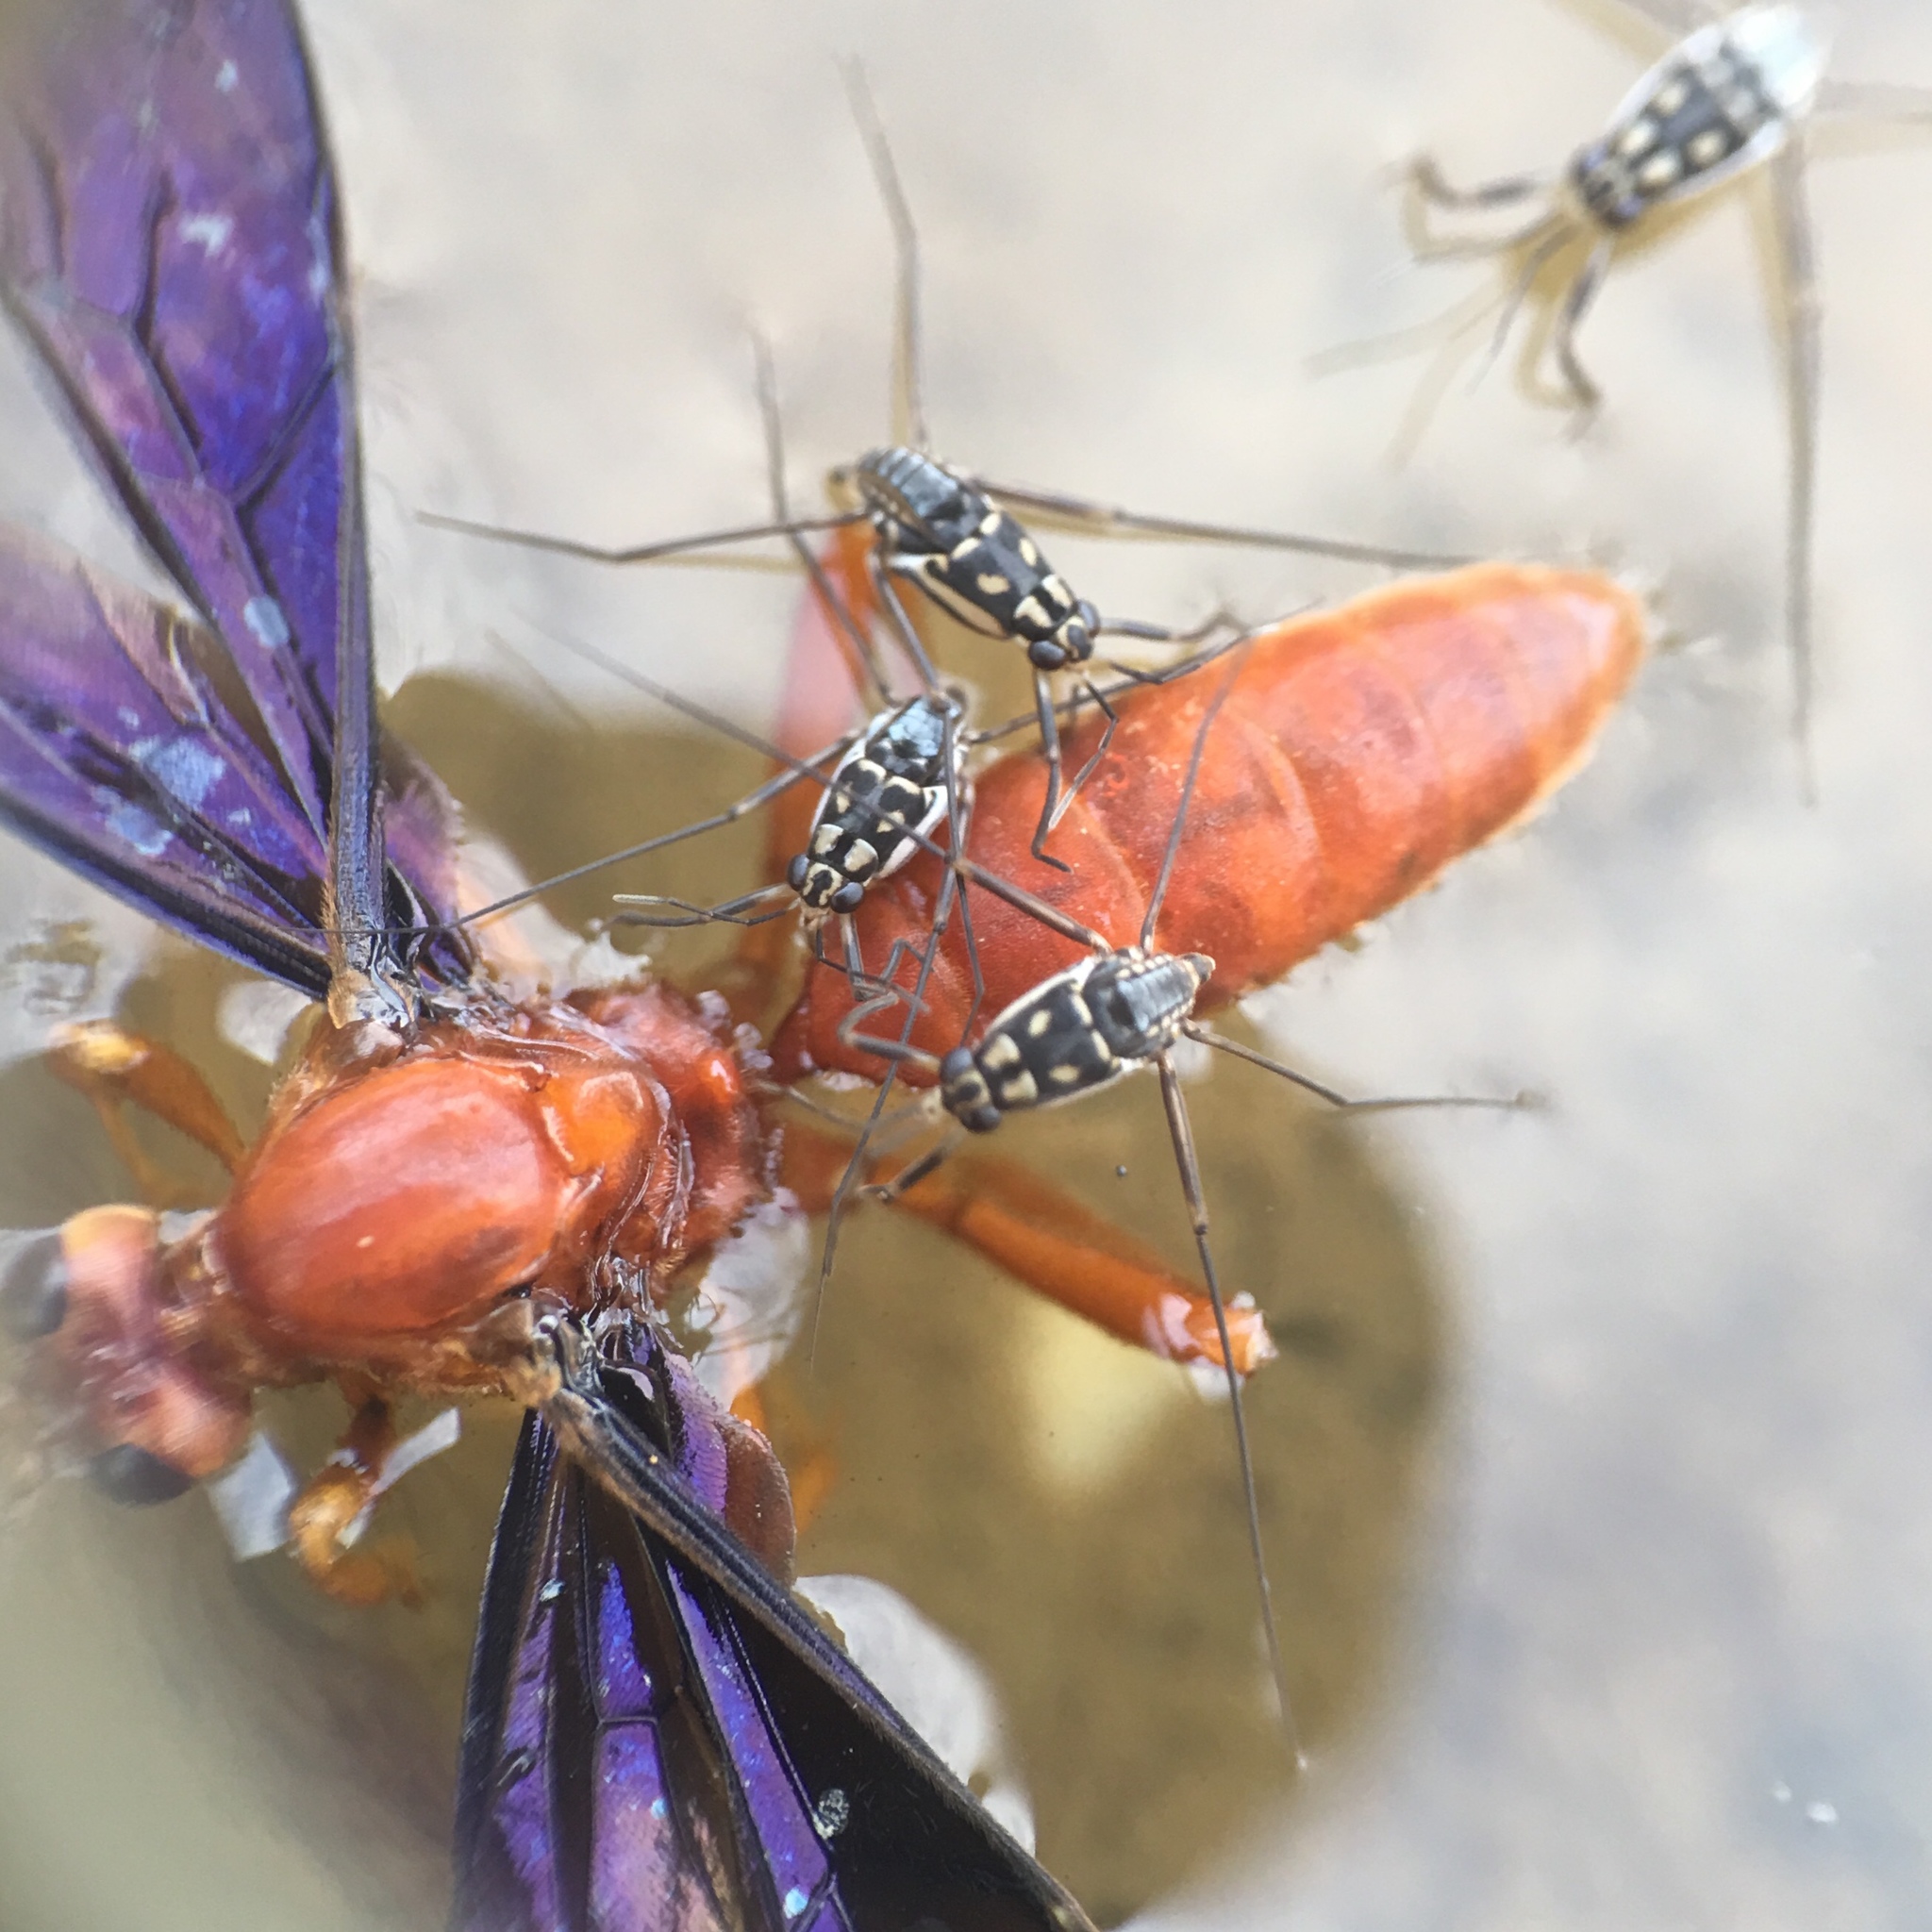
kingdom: Animalia
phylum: Arthropoda
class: Insecta
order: Hemiptera
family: Gerridae
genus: Trepobates
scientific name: Trepobates subnitidus
